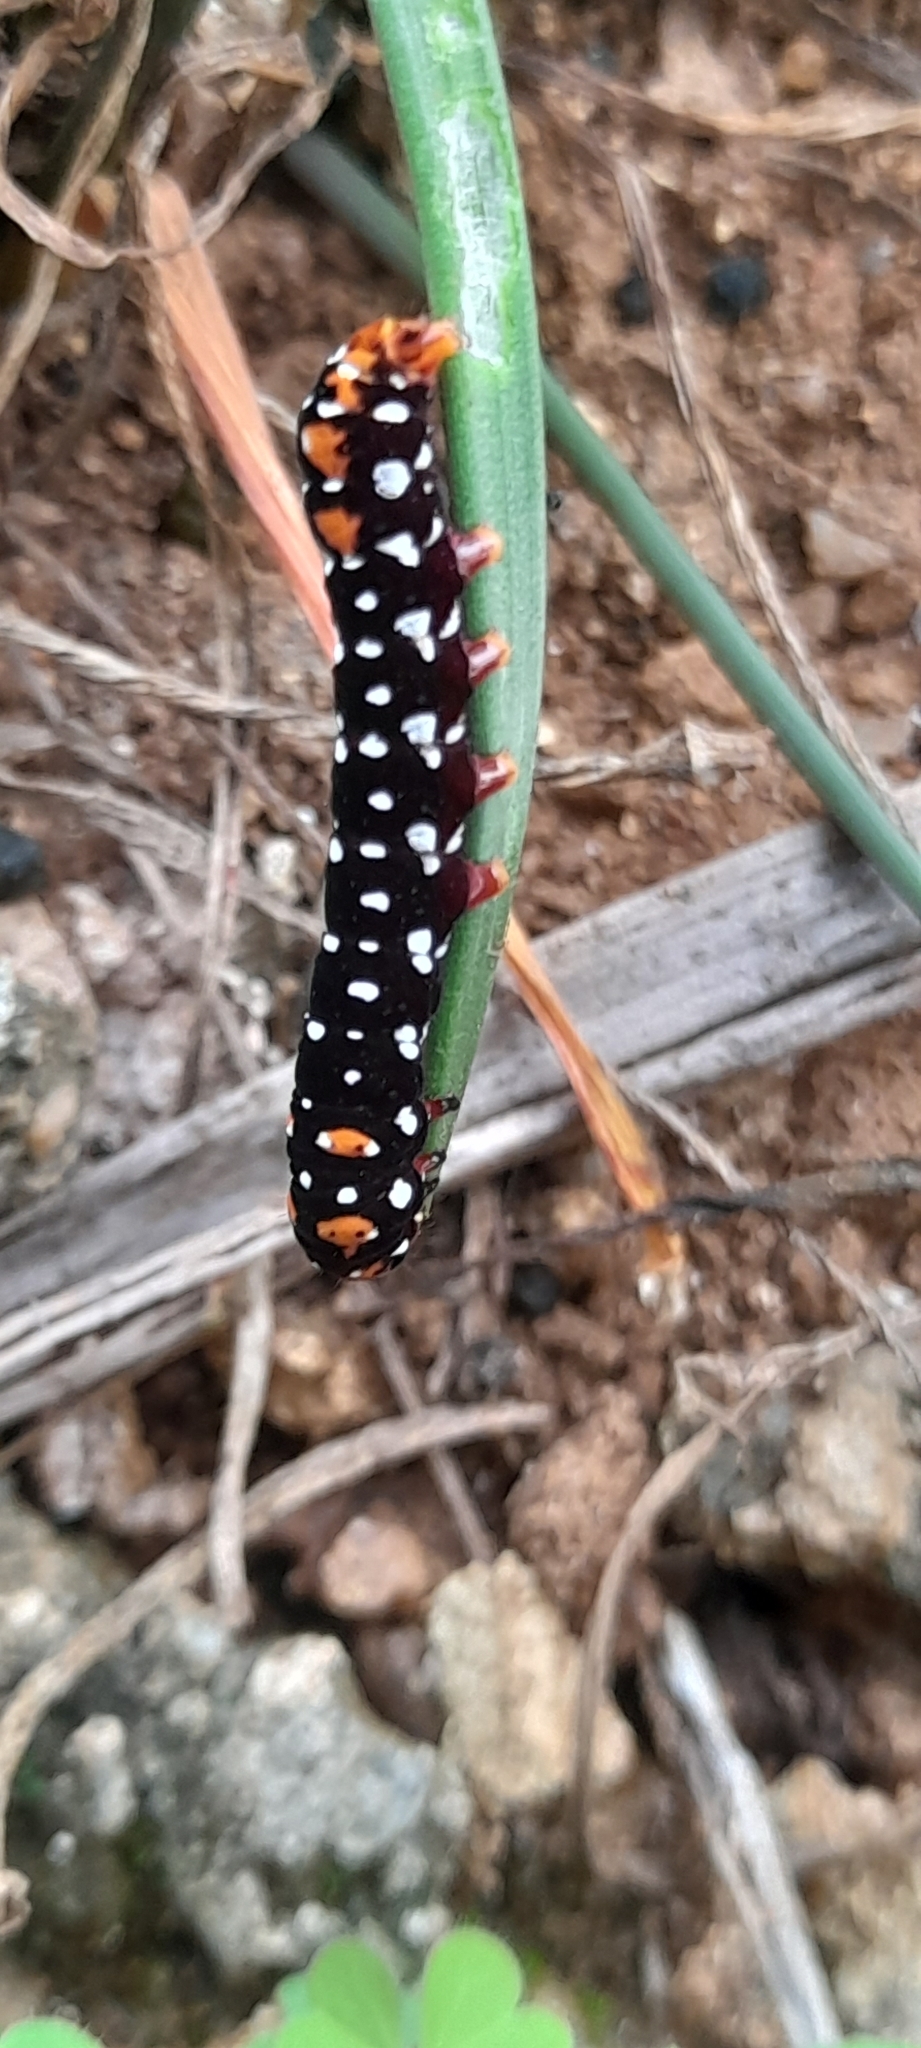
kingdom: Animalia
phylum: Arthropoda
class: Insecta
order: Lepidoptera
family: Noctuidae
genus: Polytela
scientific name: Polytela gloriosae
